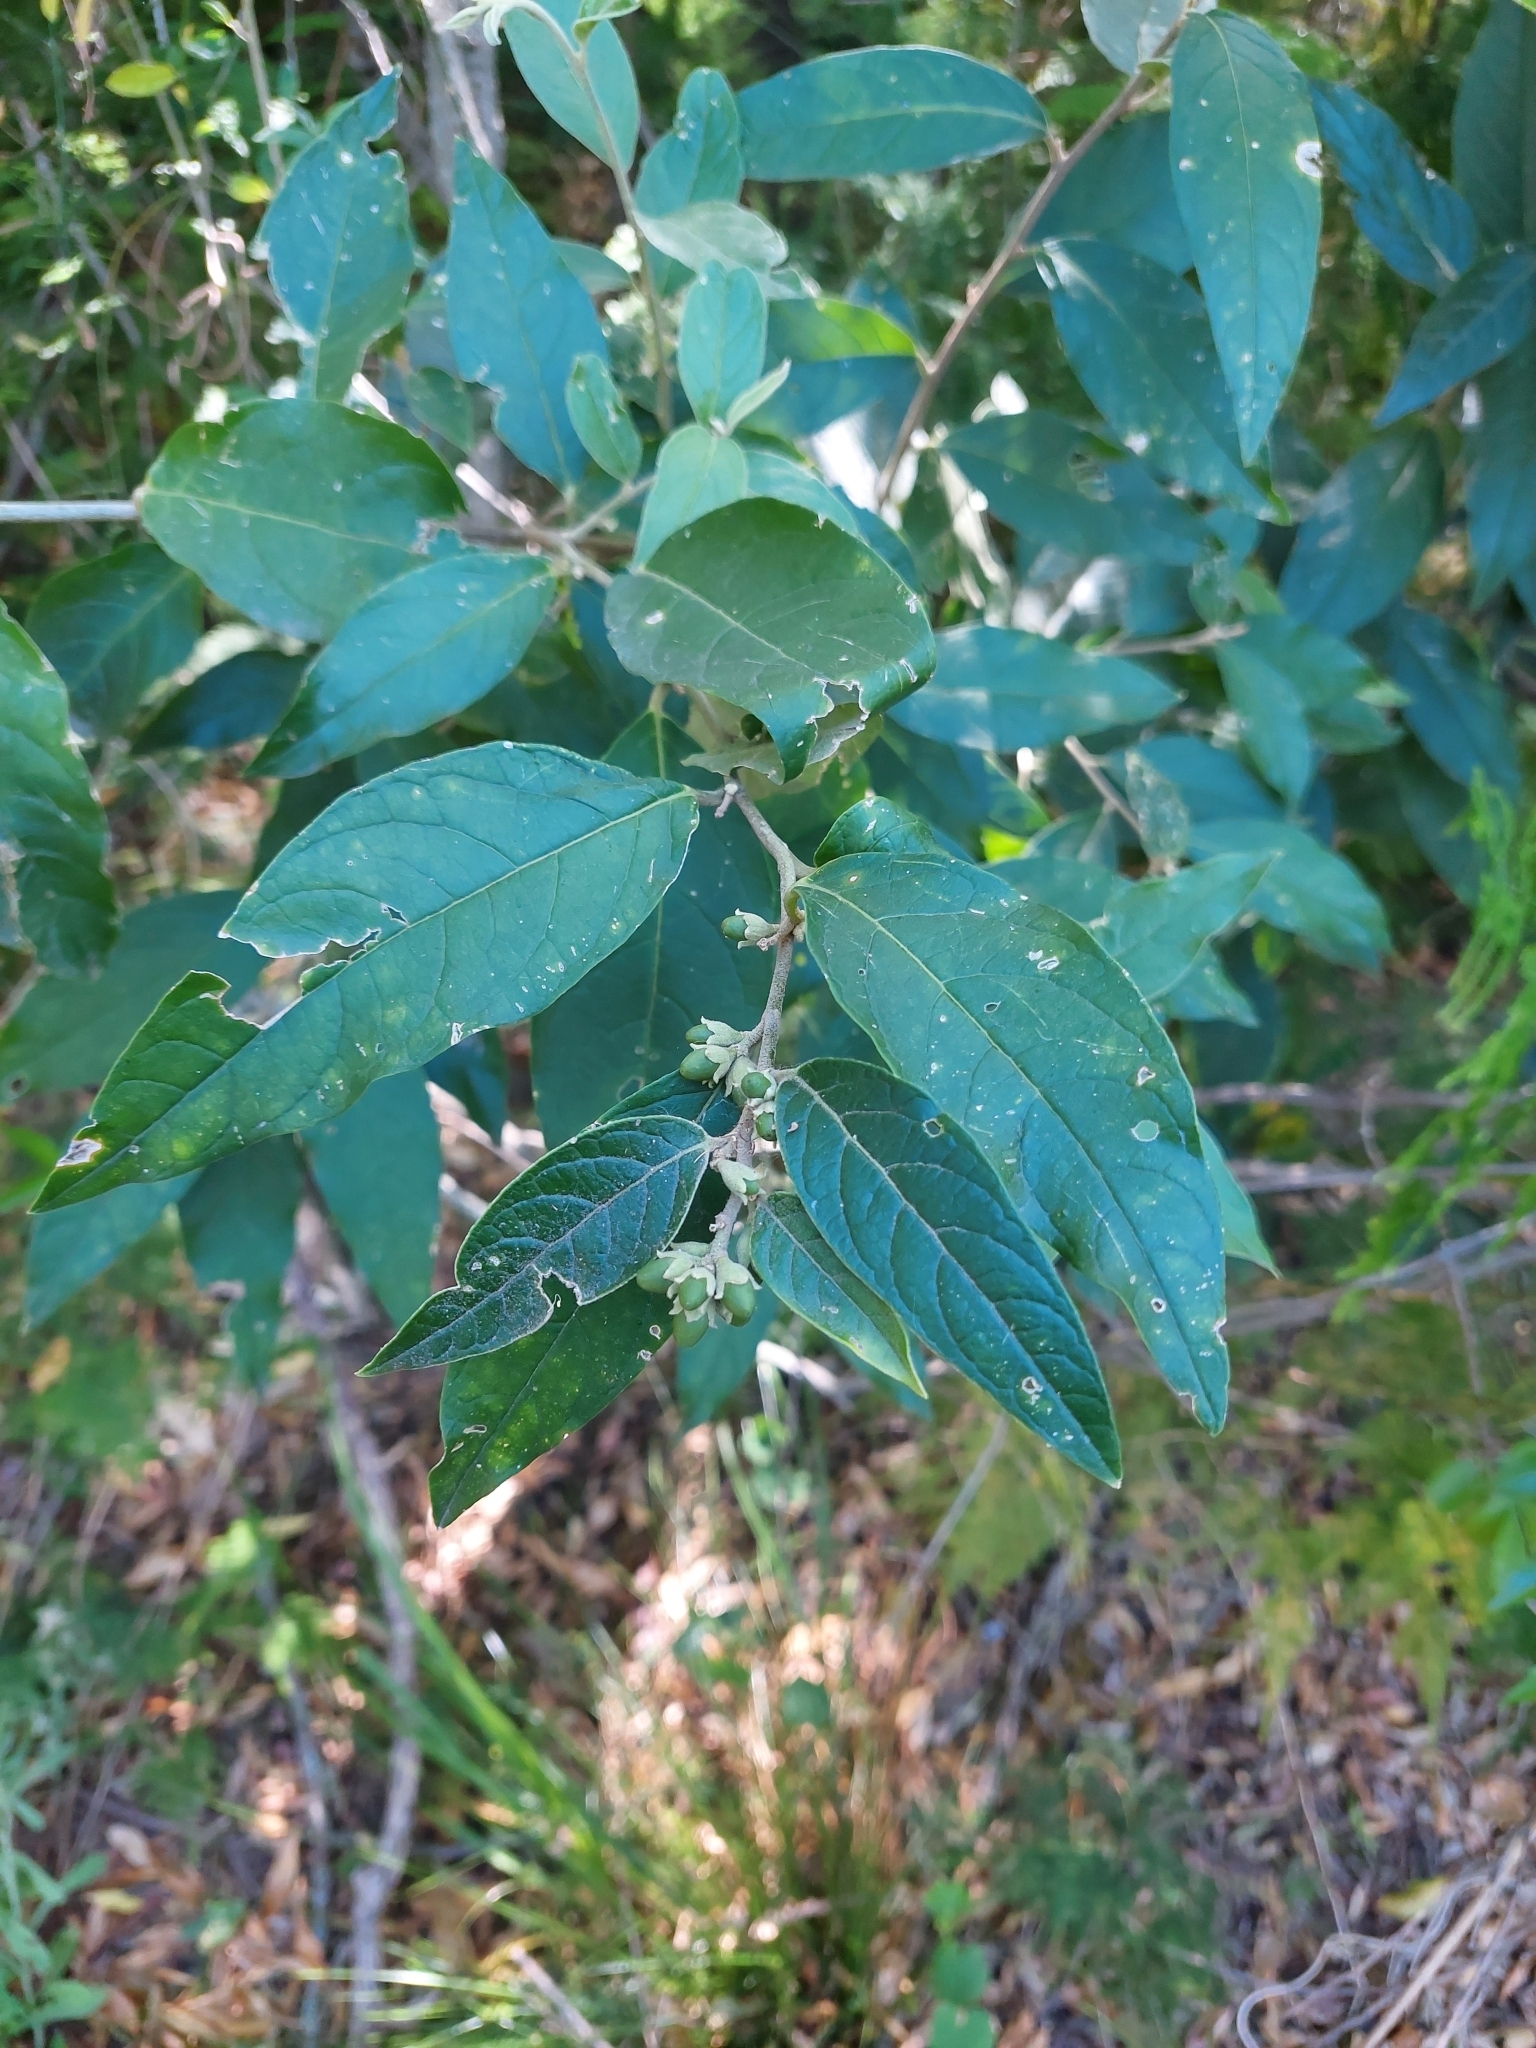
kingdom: Plantae
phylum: Tracheophyta
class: Magnoliopsida
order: Solanales
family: Solanaceae
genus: Cestrum
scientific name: Cestrum strigillatum
